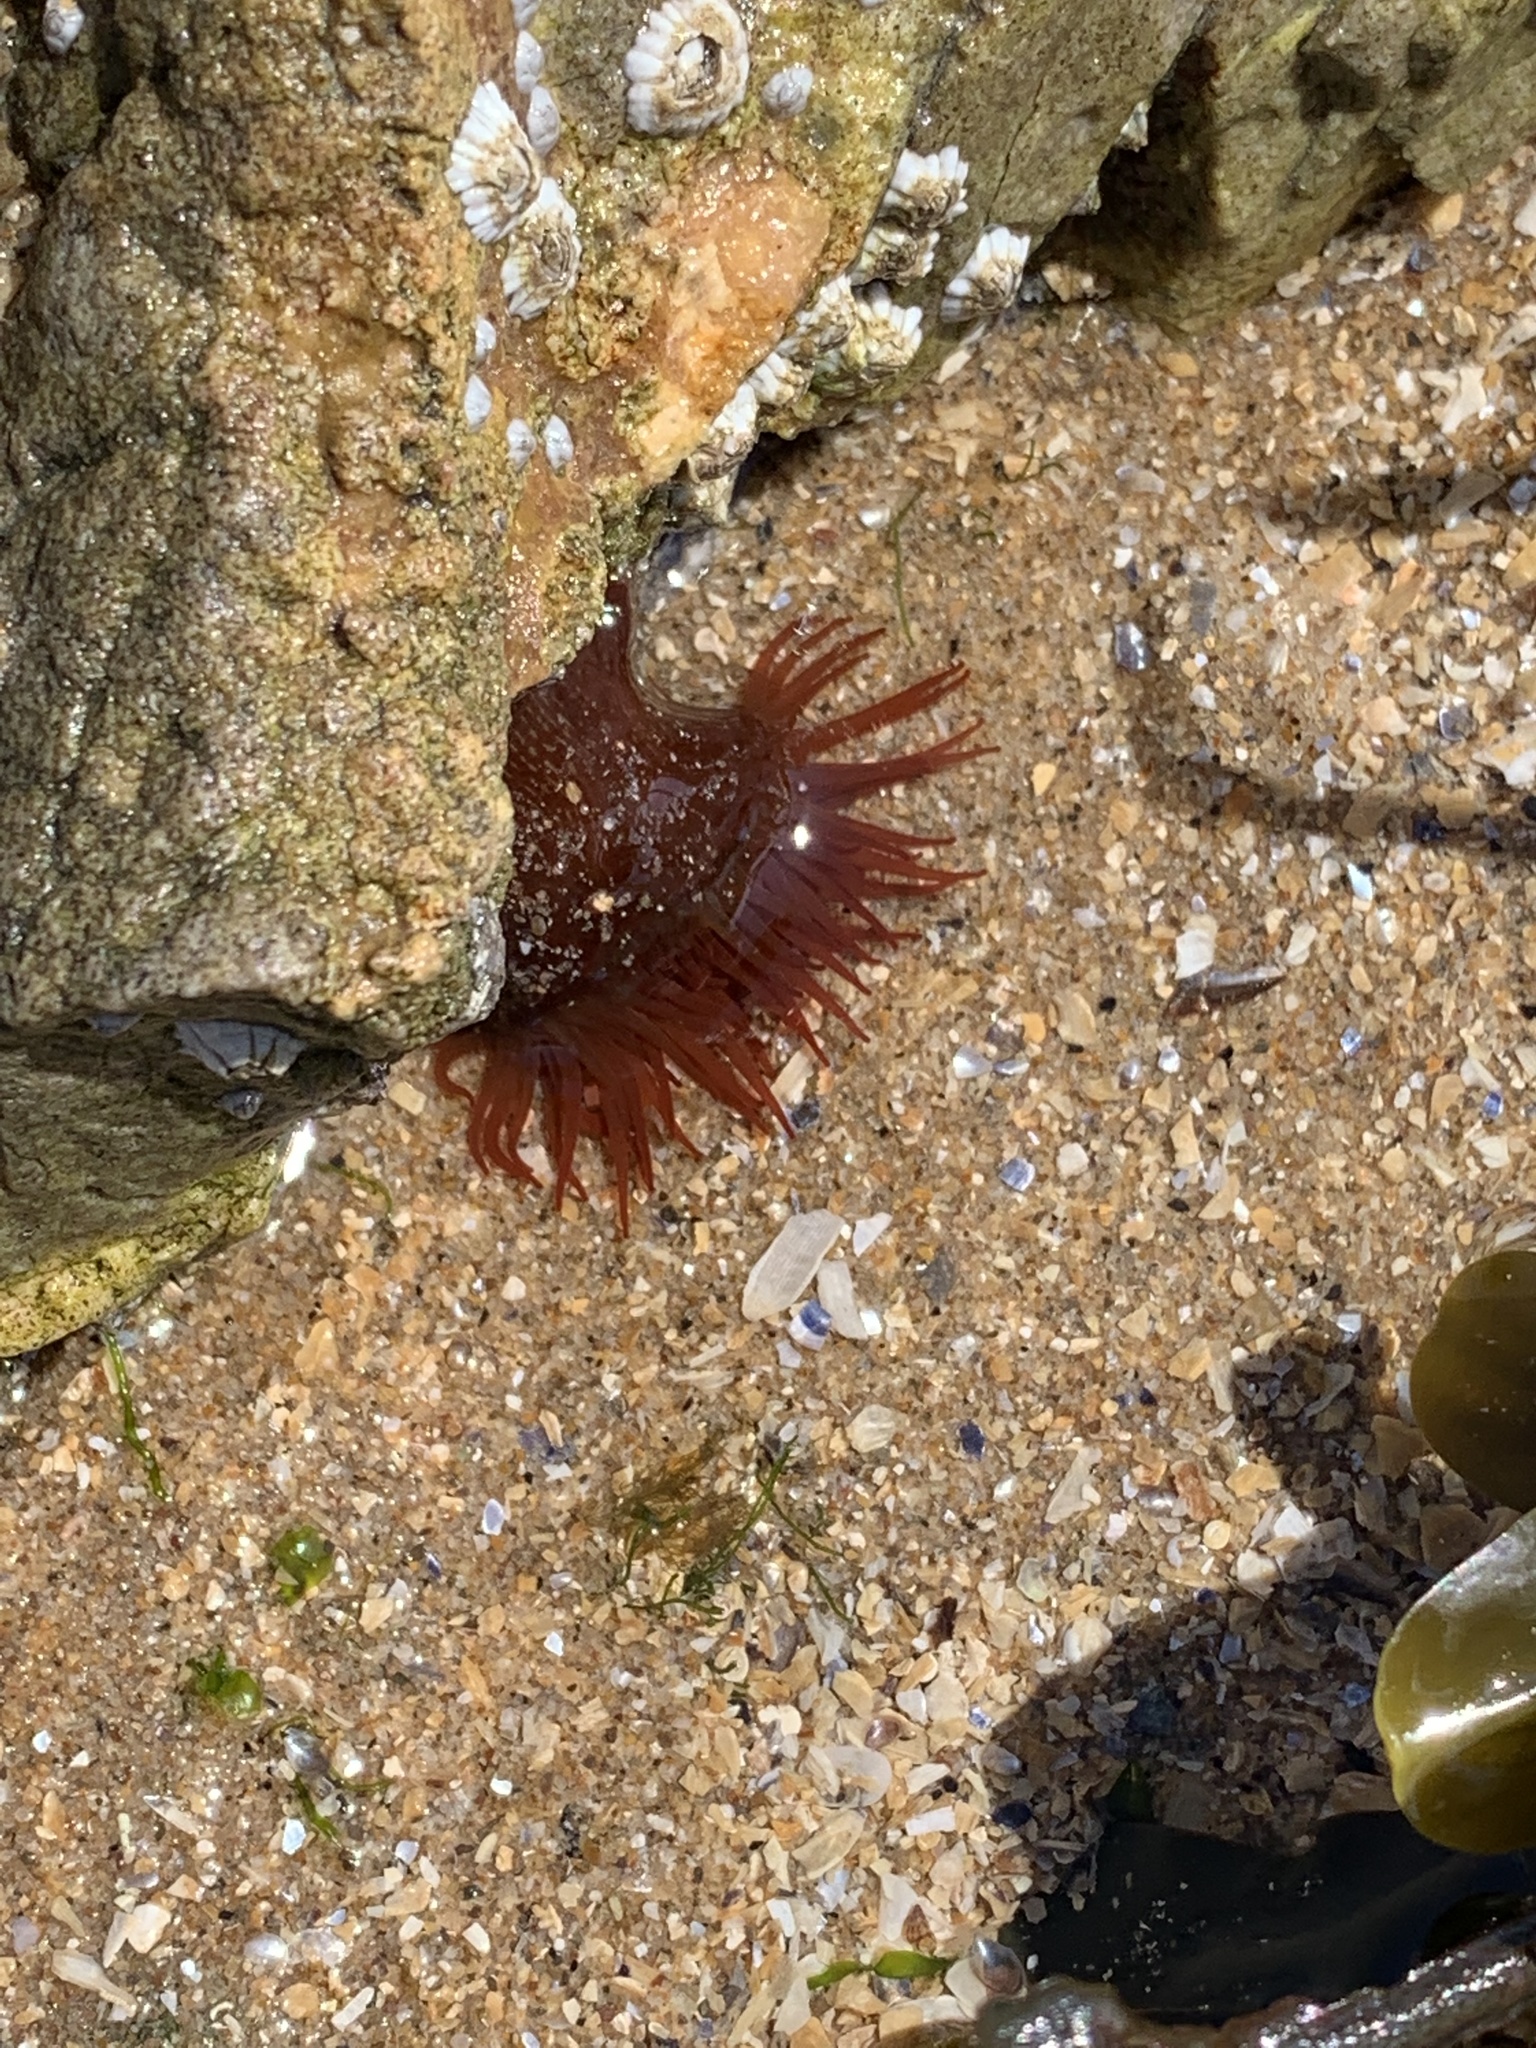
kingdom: Animalia
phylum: Cnidaria
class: Anthozoa
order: Actiniaria
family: Actiniidae
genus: Actinia
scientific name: Actinia equina
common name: Beadlet anemone
